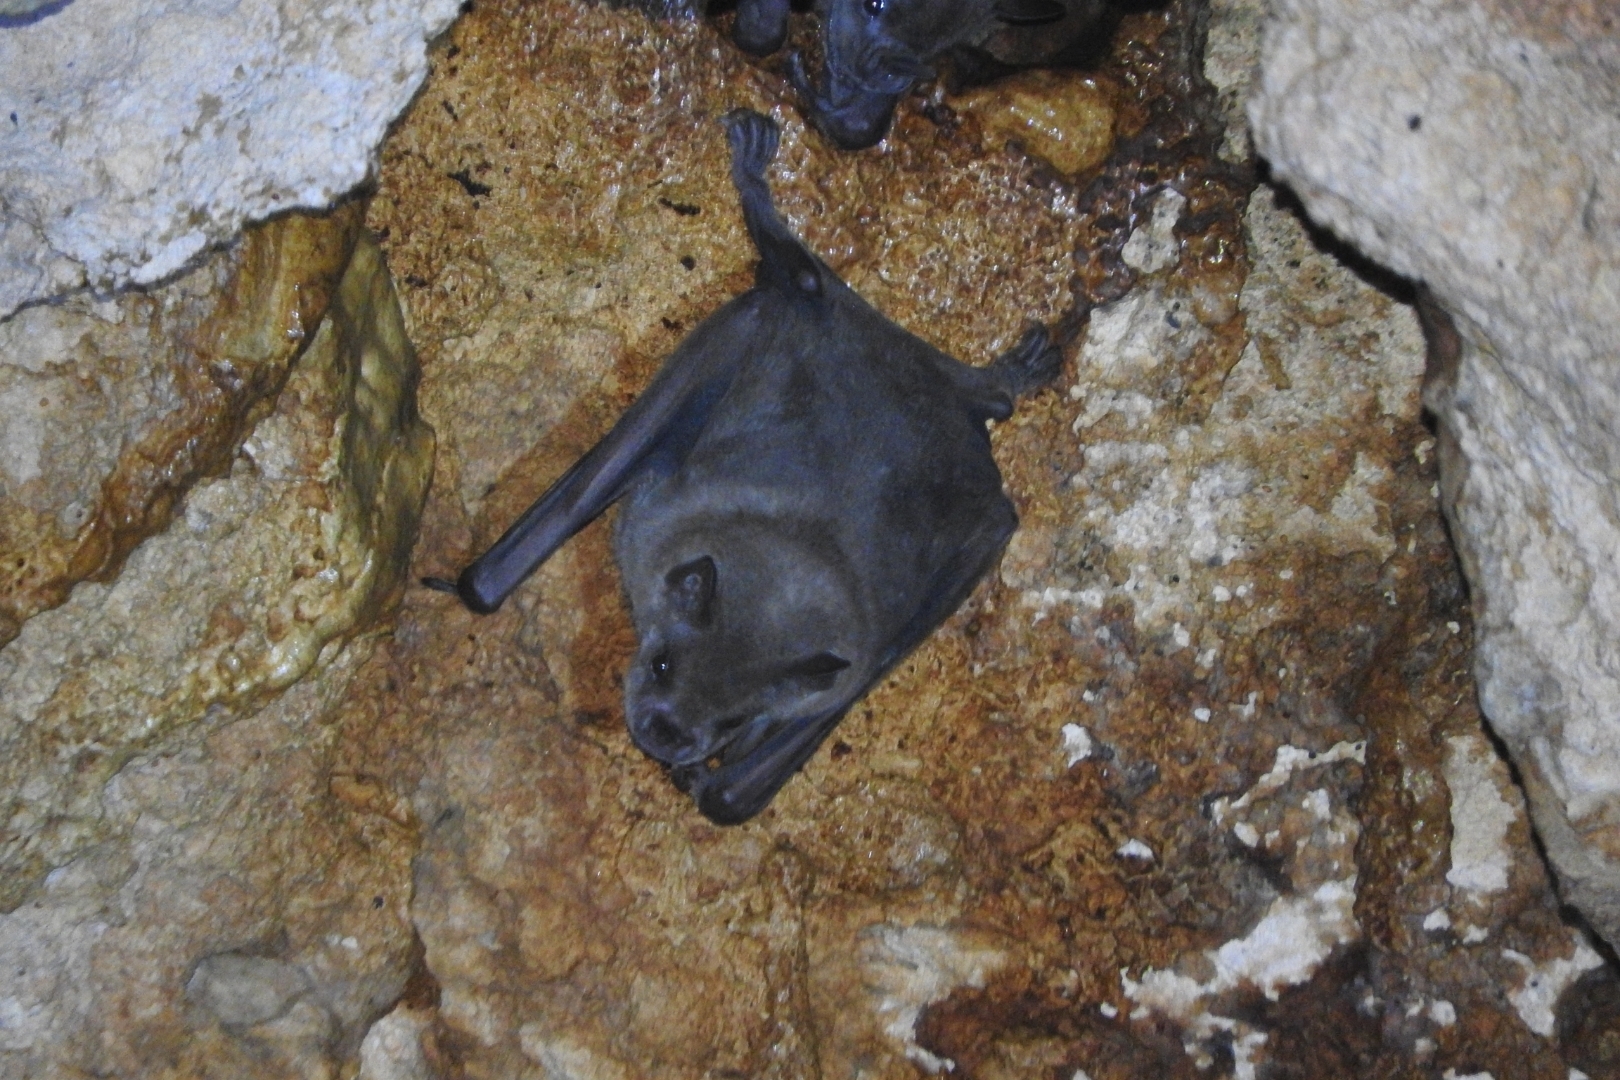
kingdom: Animalia
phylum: Chordata
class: Mammalia
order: Chiroptera
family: Phyllostomidae
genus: Artibeus
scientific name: Artibeus jamaicensis
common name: Jamaican fruit-eating bat
